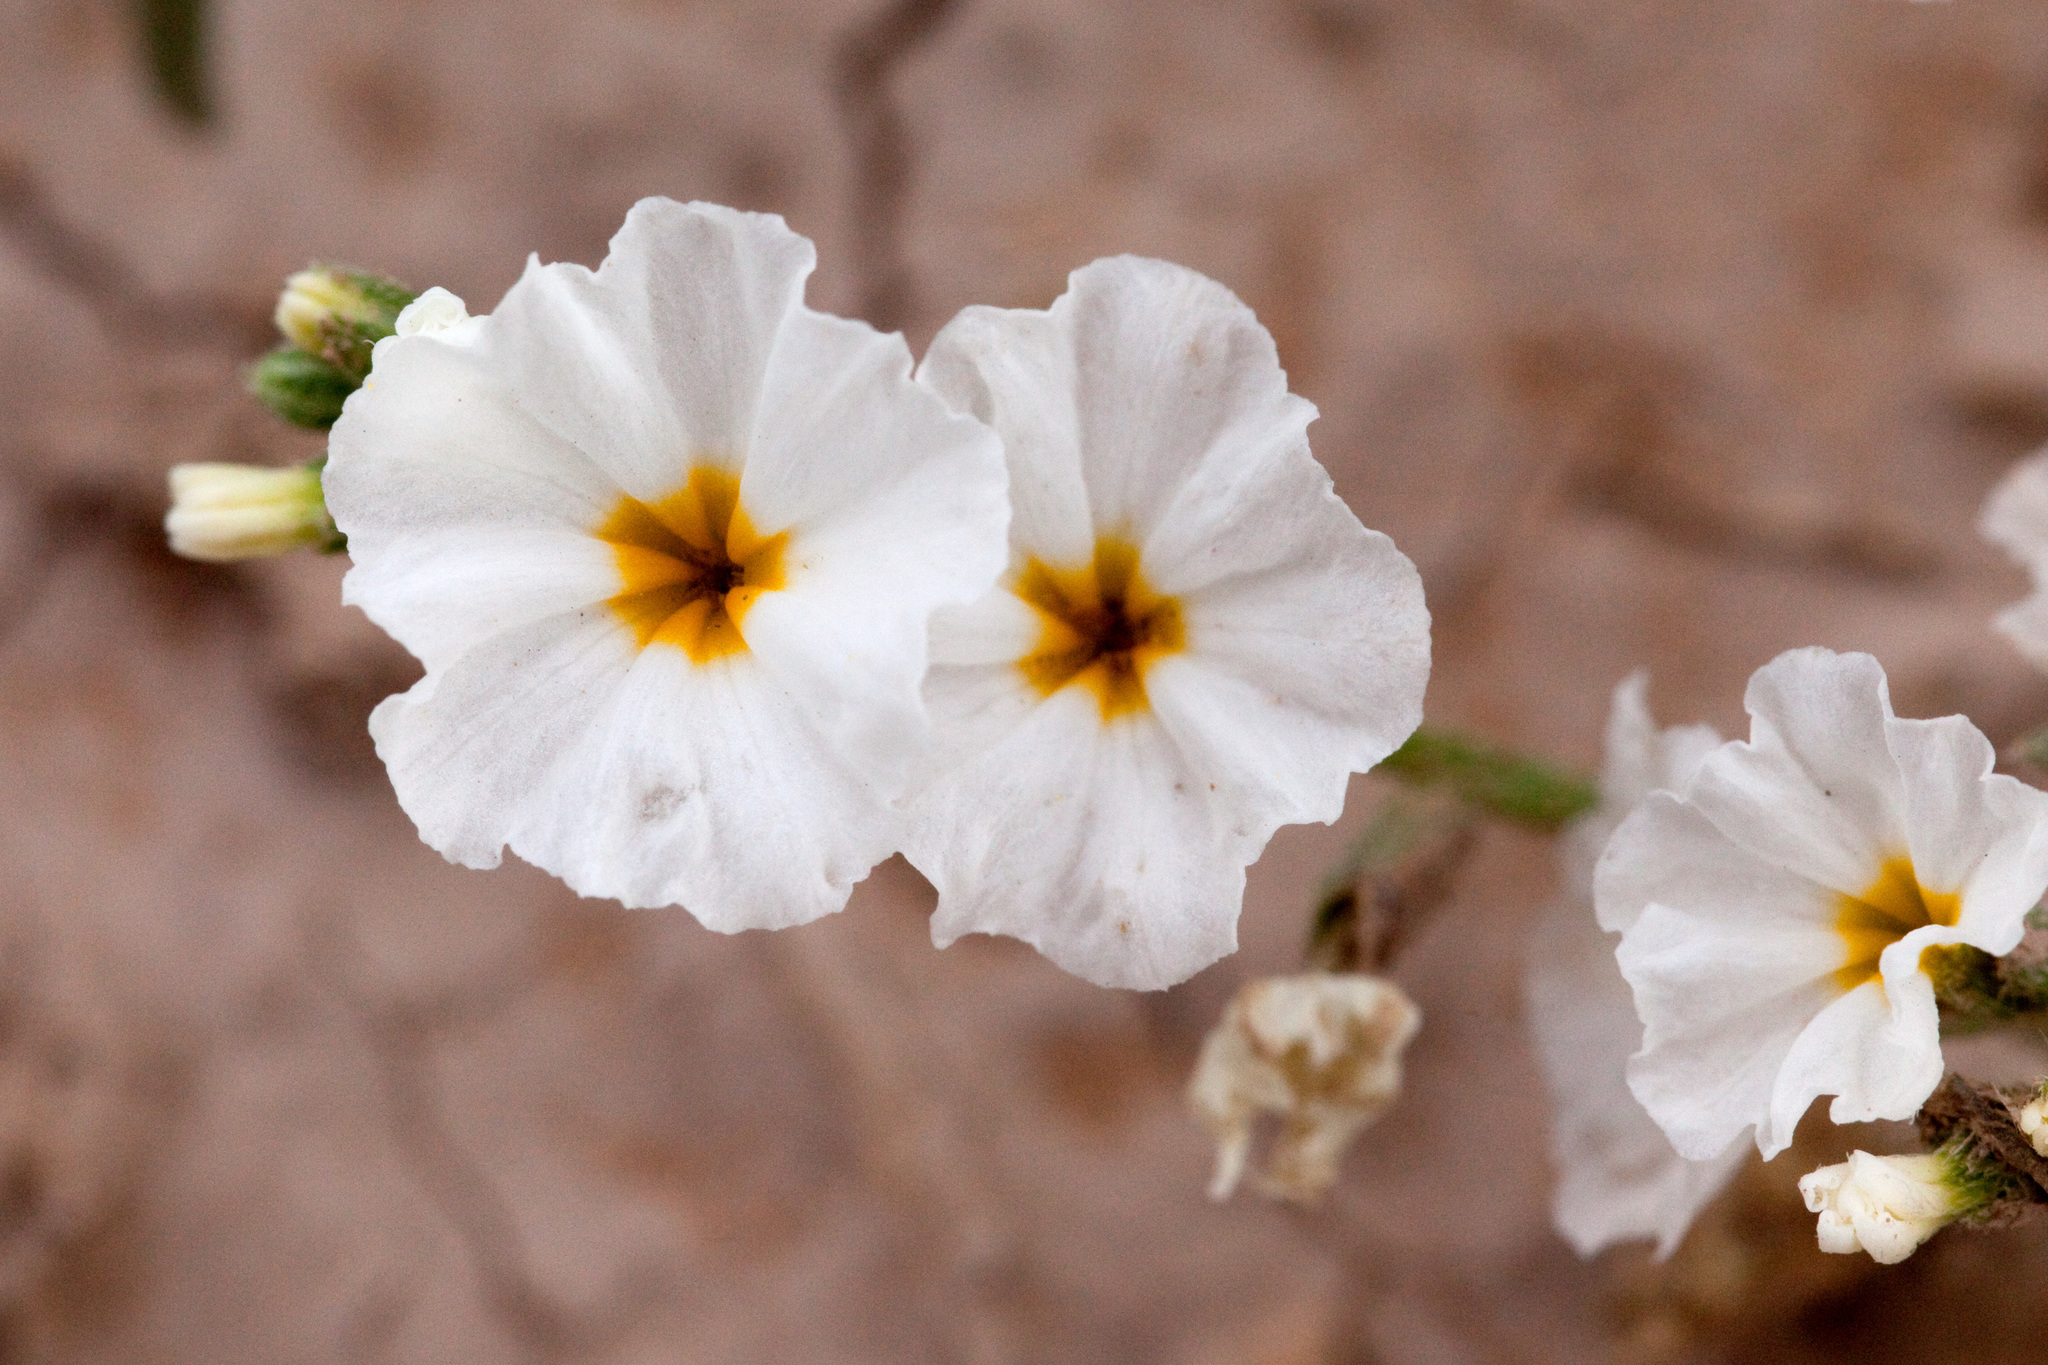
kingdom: Plantae
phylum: Tracheophyta
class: Magnoliopsida
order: Boraginales
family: Heliotropiaceae
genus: Euploca
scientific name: Euploca greggii
